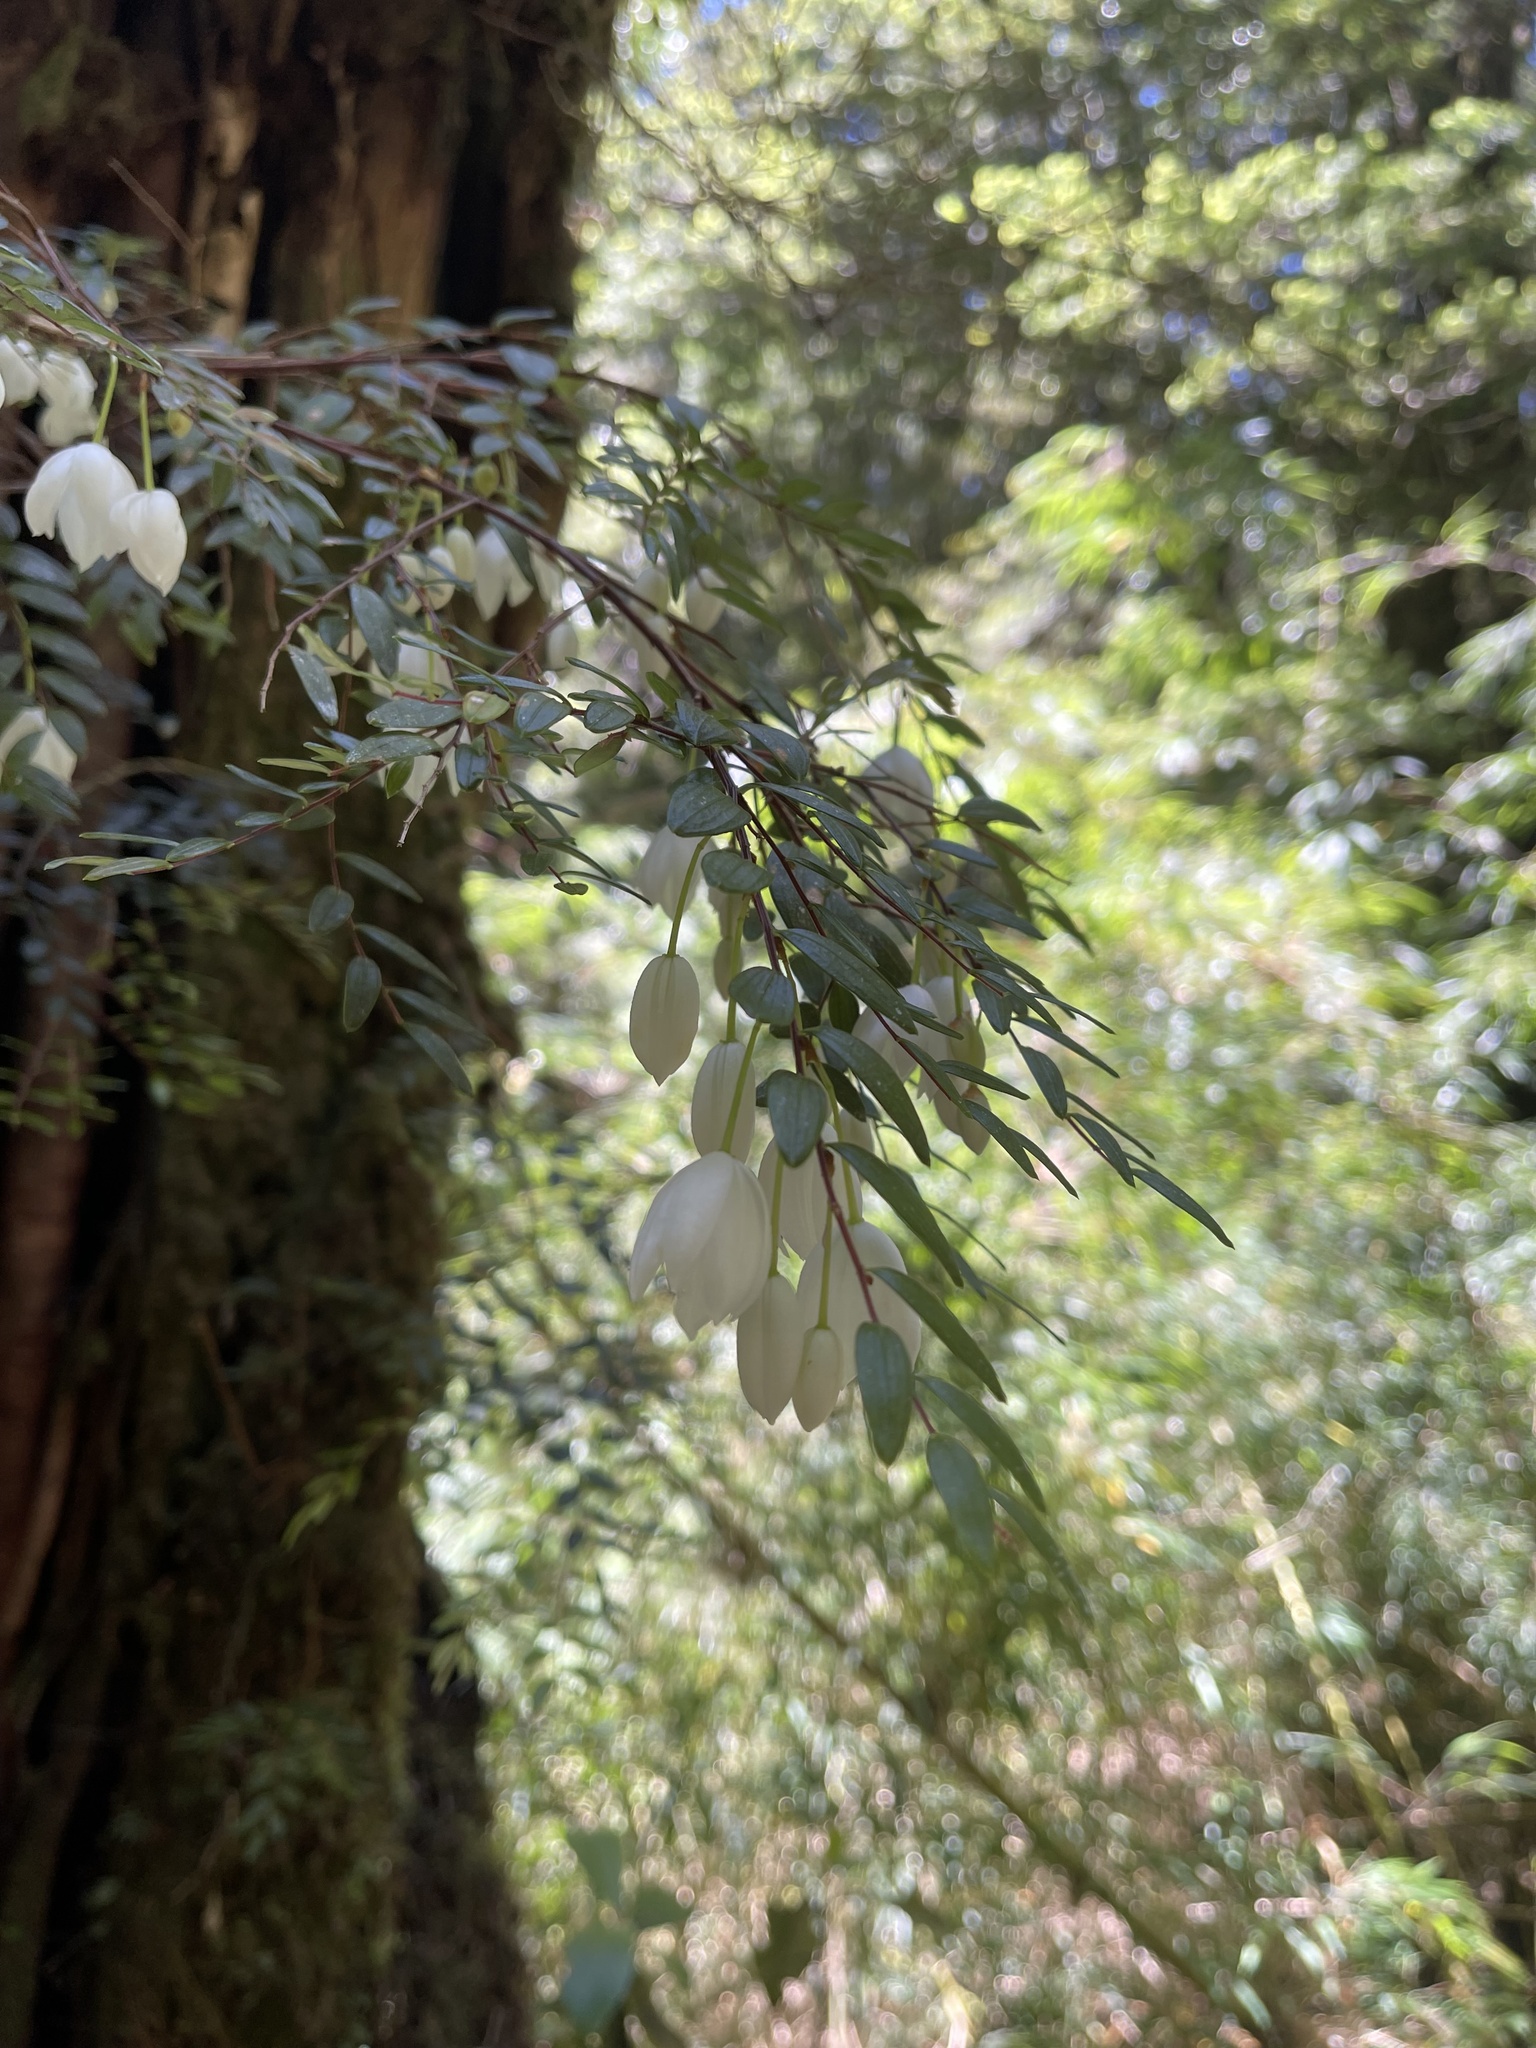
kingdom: Plantae
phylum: Tracheophyta
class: Liliopsida
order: Liliales
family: Alstroemeriaceae
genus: Luzuriaga
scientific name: Luzuriaga polyphylla
